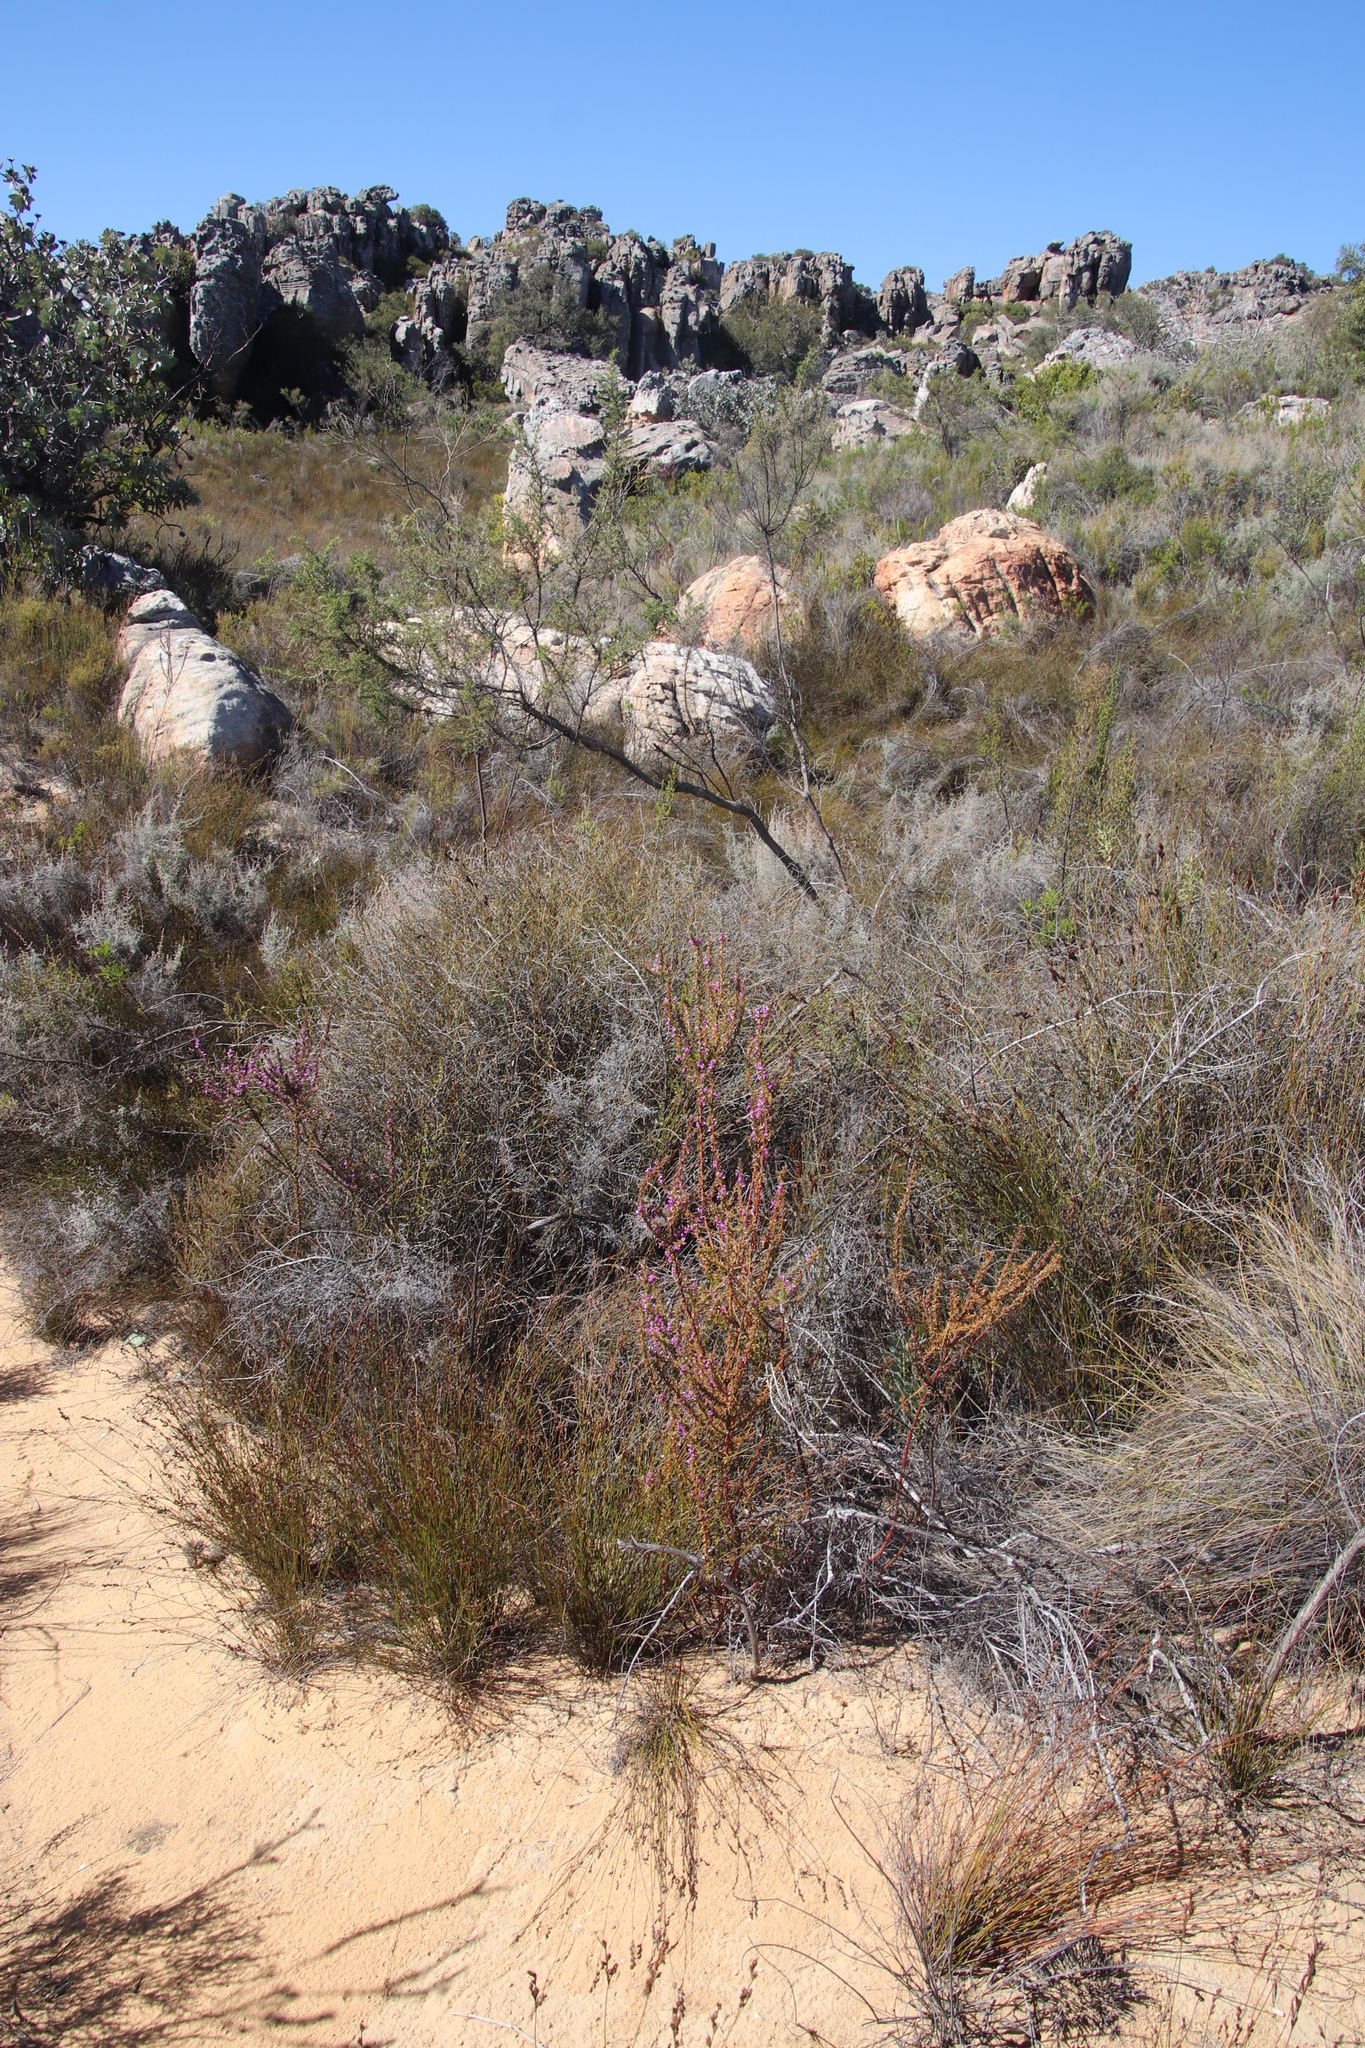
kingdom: Plantae
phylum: Tracheophyta
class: Magnoliopsida
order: Fabales
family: Polygalaceae
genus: Muraltia
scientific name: Muraltia heisteria
